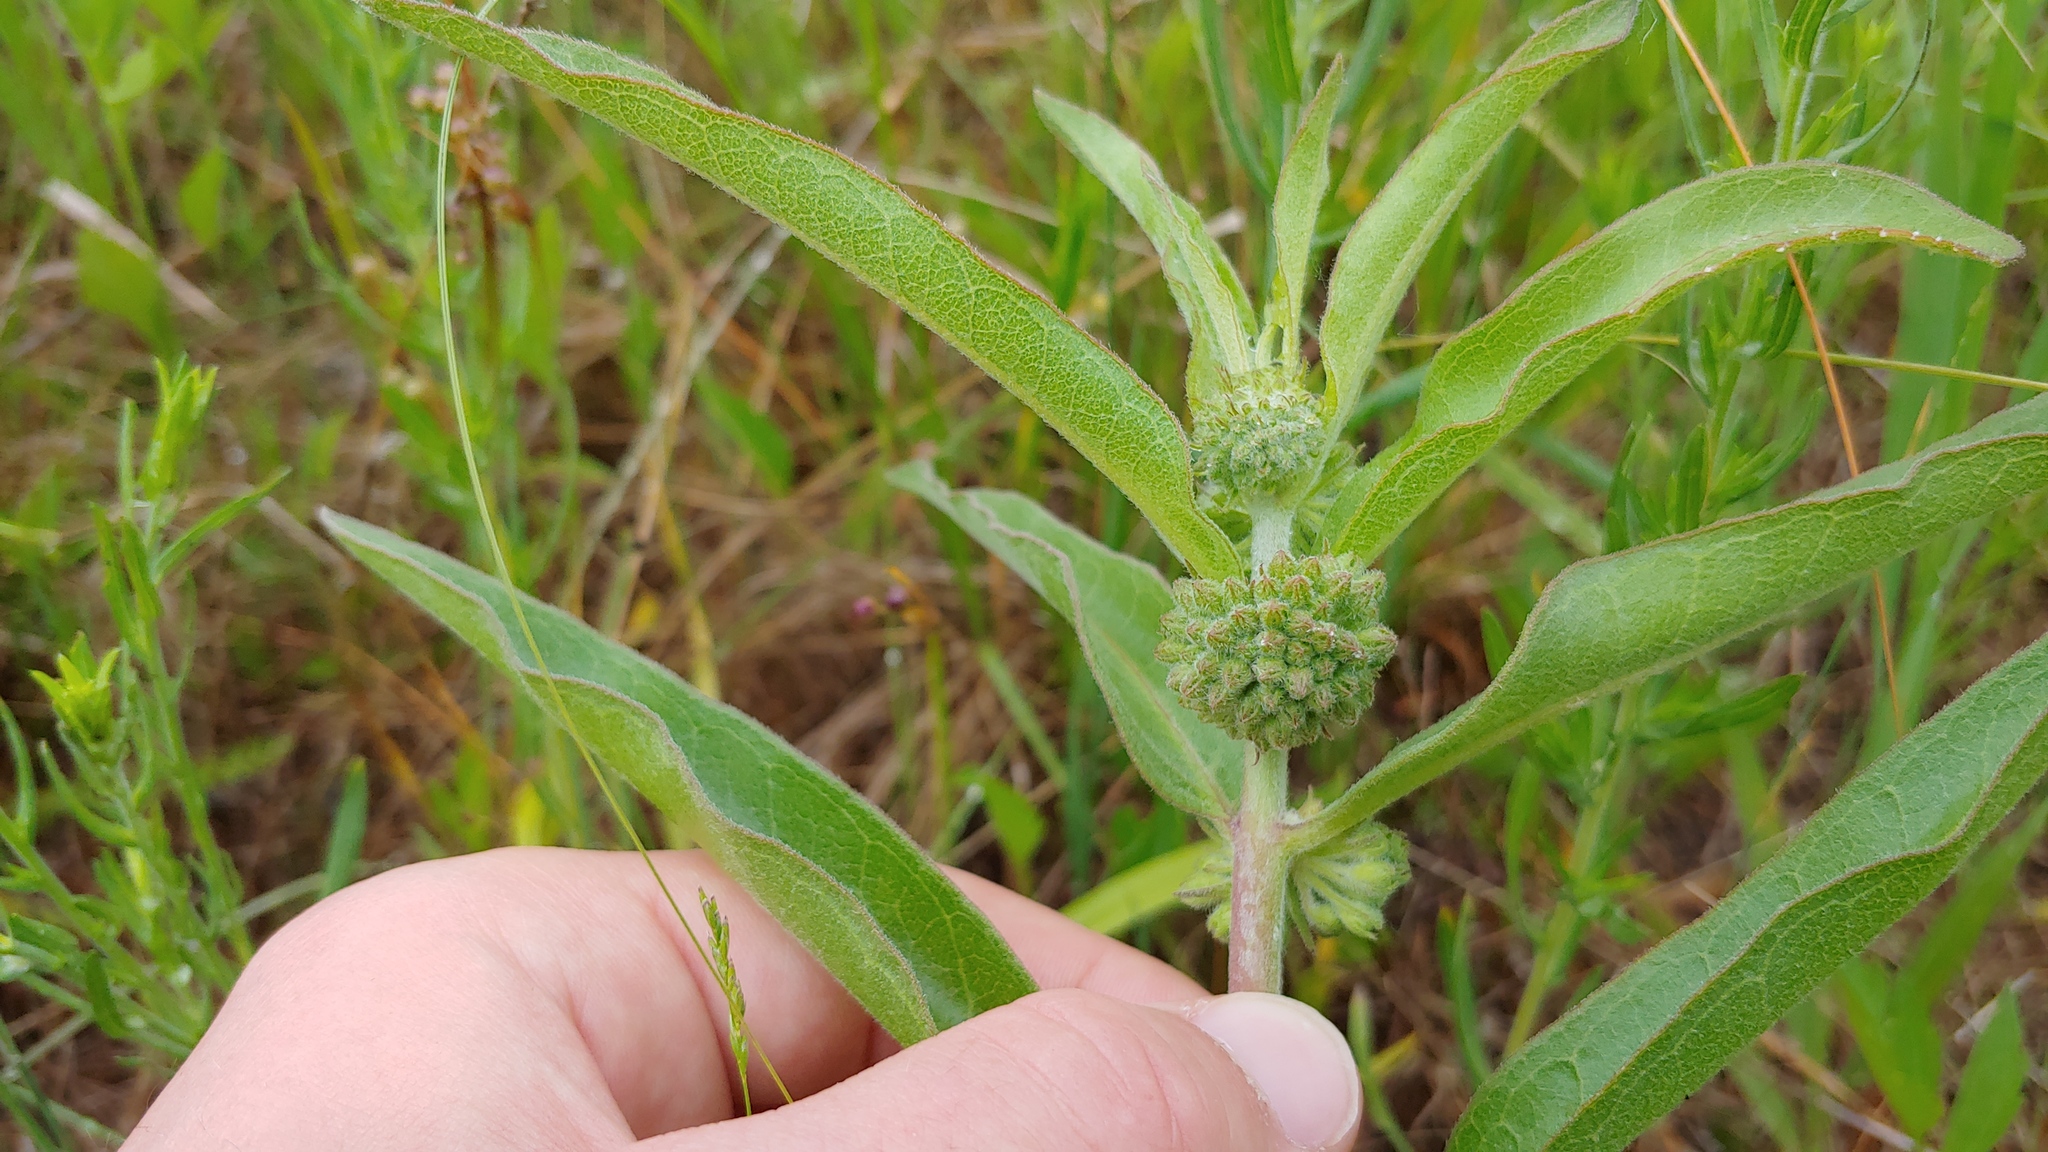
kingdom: Plantae
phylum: Tracheophyta
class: Magnoliopsida
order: Gentianales
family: Apocynaceae
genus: Asclepias
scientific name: Asclepias viridiflora
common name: Green comet milkweed
